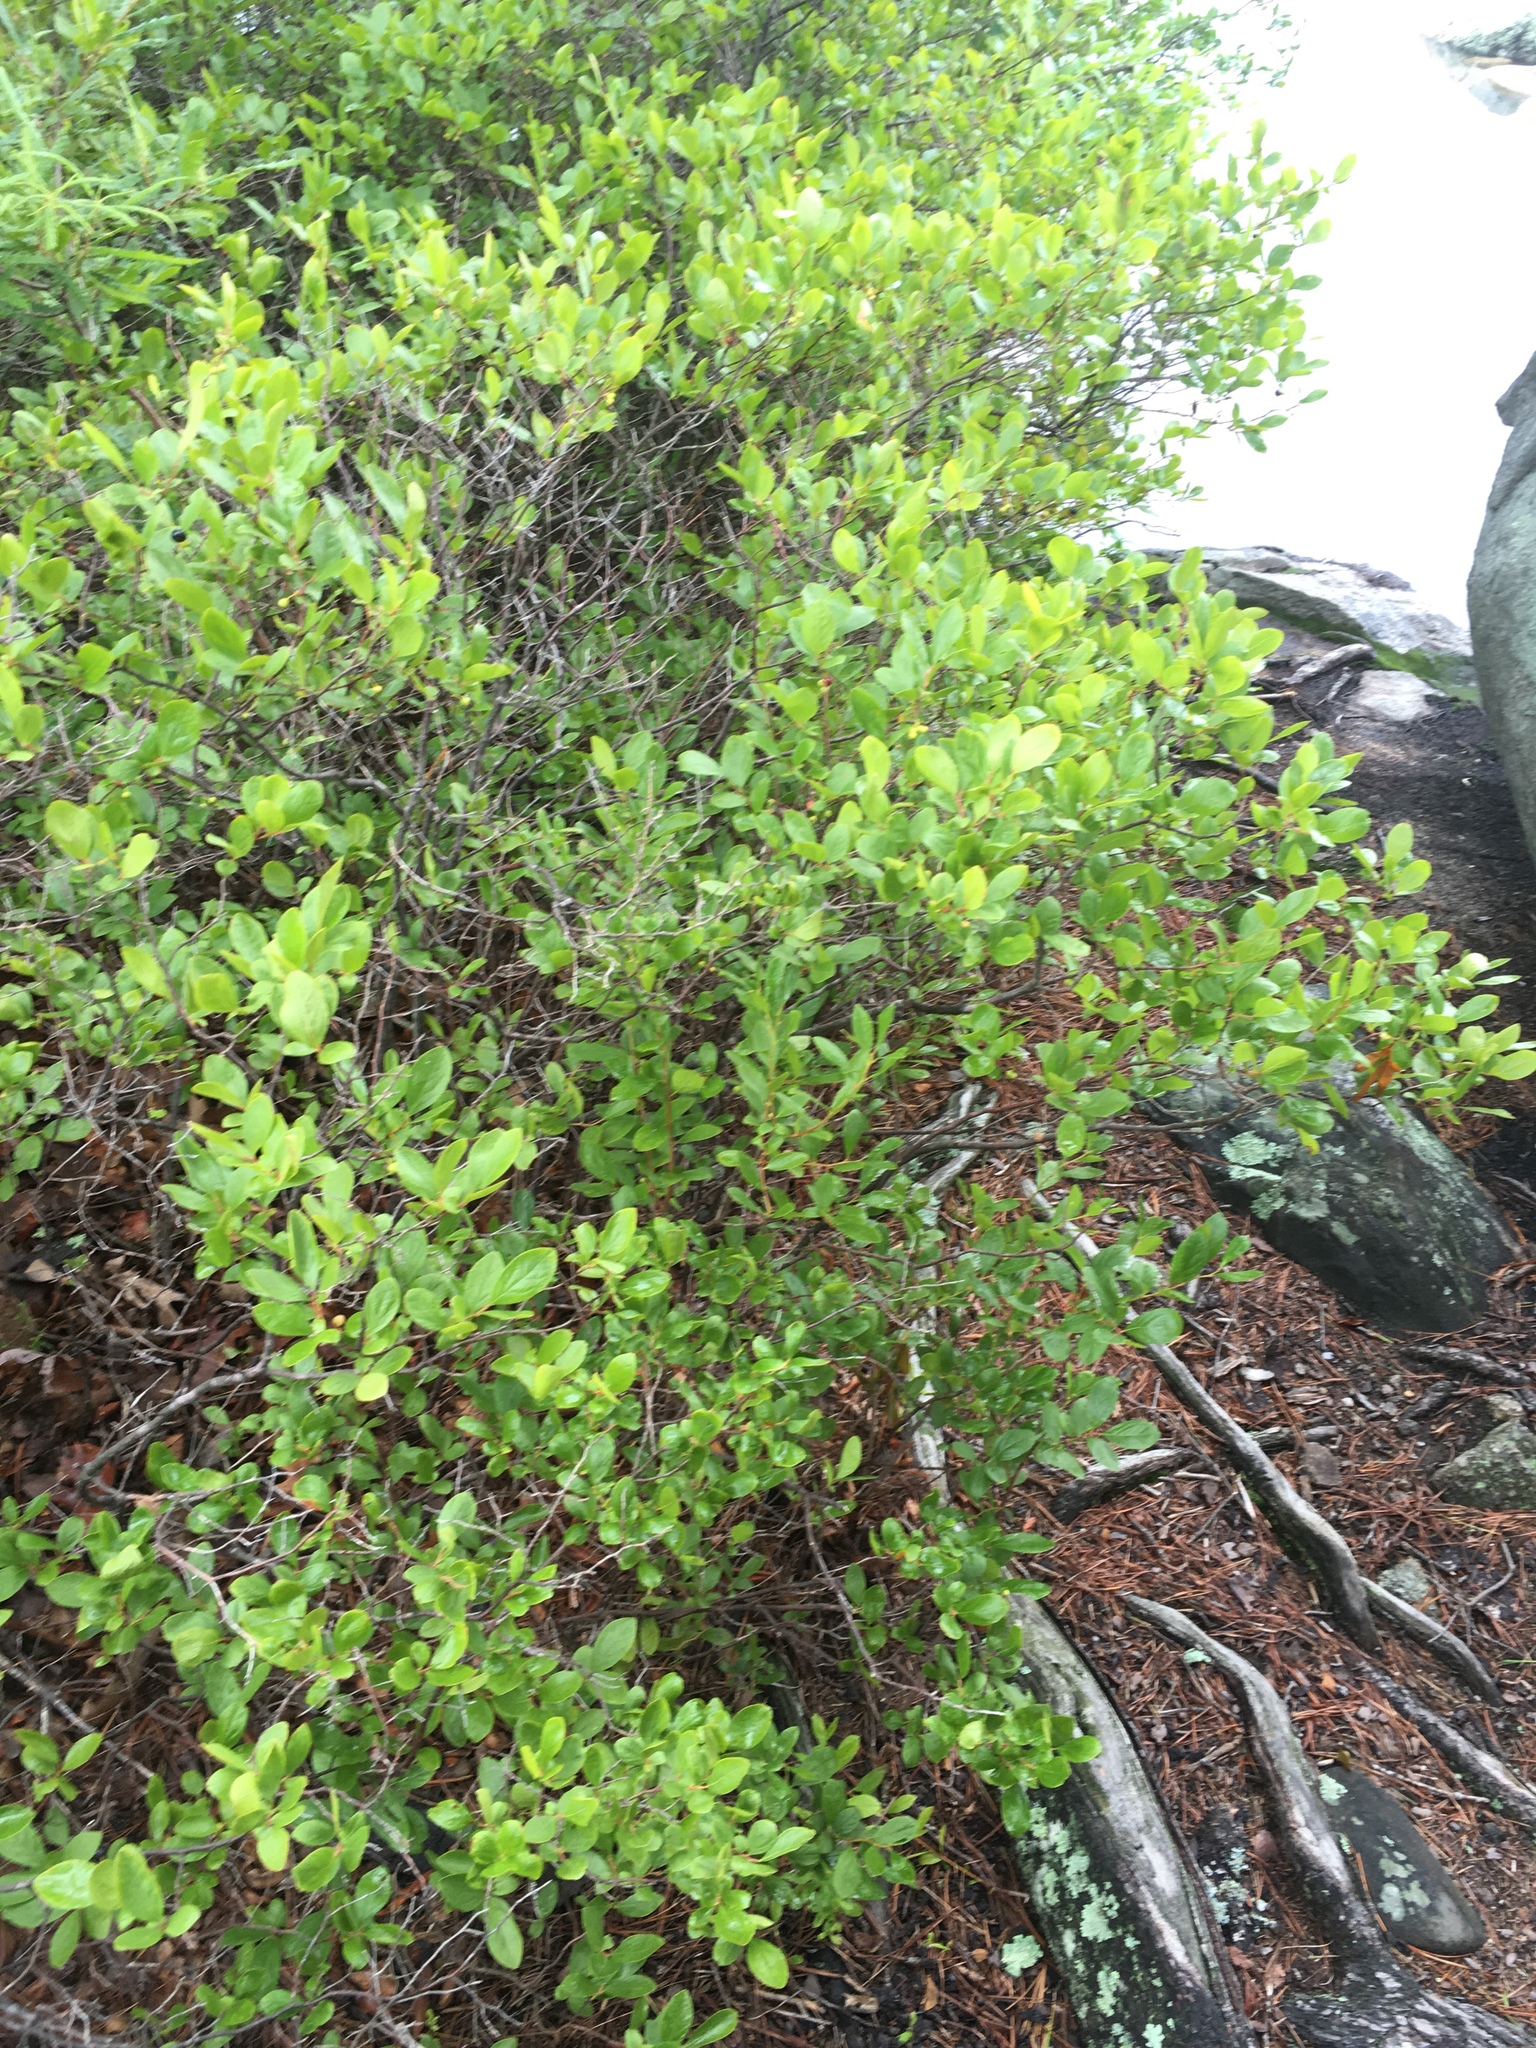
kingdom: Plantae
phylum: Tracheophyta
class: Magnoliopsida
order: Ericales
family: Ericaceae
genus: Gaylussacia
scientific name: Gaylussacia baccata
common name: Black huckleberry
